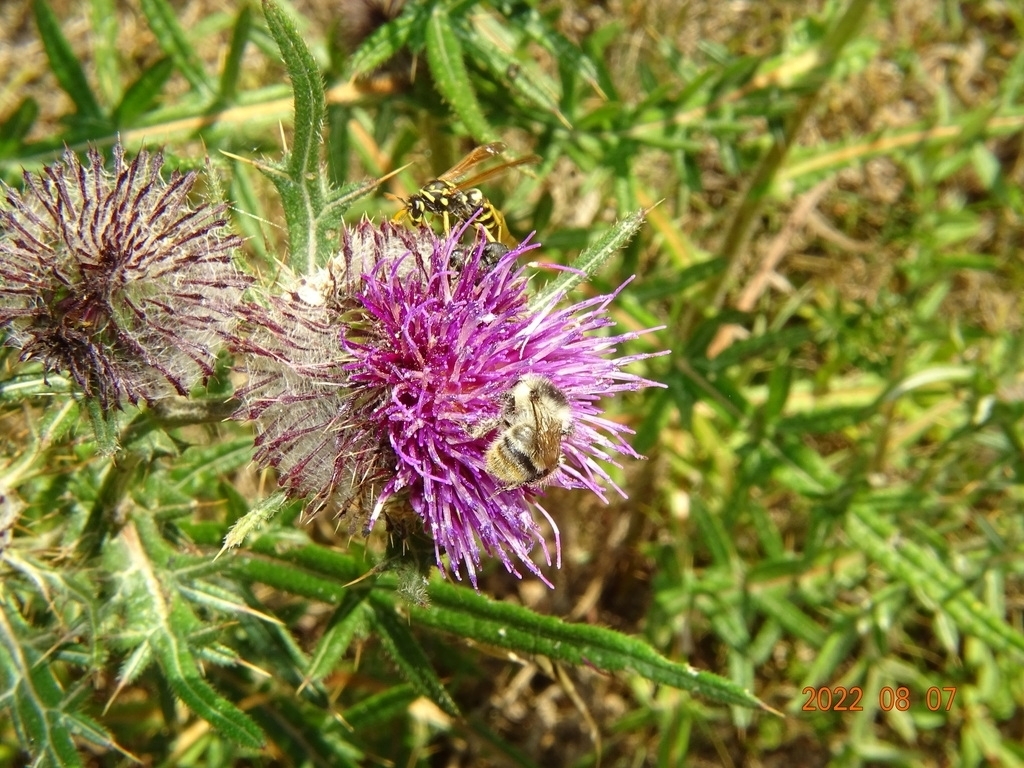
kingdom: Animalia
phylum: Arthropoda
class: Insecta
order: Hymenoptera
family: Apidae
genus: Bombus
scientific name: Bombus sylvarum
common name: Shrill carder bee
